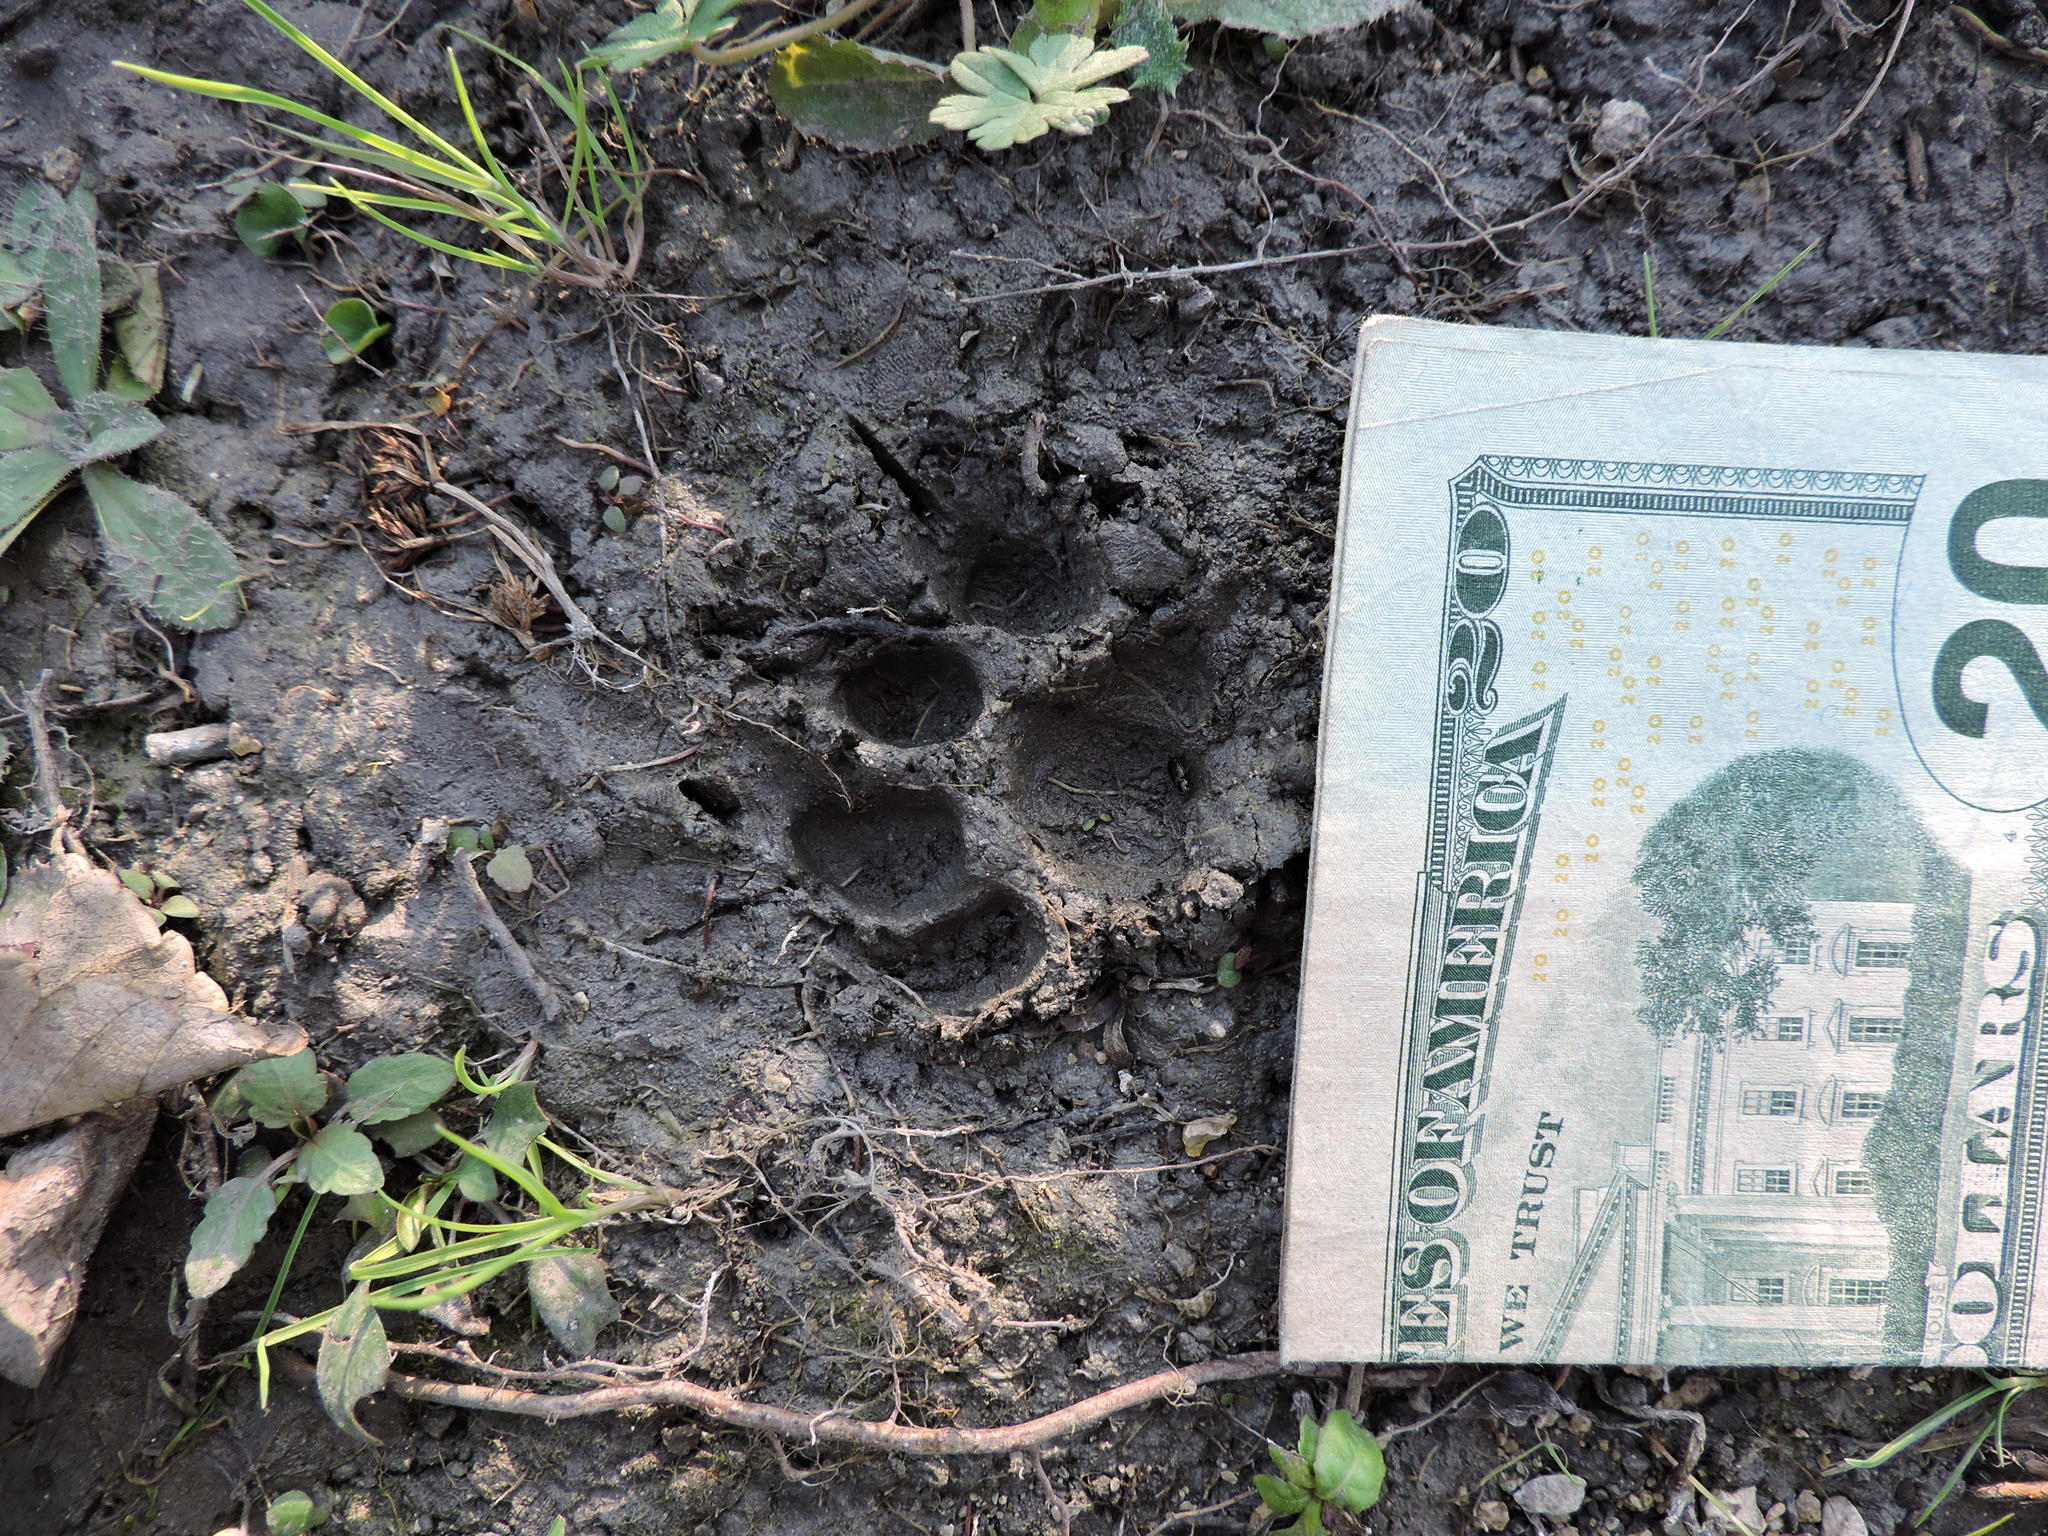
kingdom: Animalia
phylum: Chordata
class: Mammalia
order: Carnivora
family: Felidae
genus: Felis
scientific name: Felis catus
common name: Domestic cat
